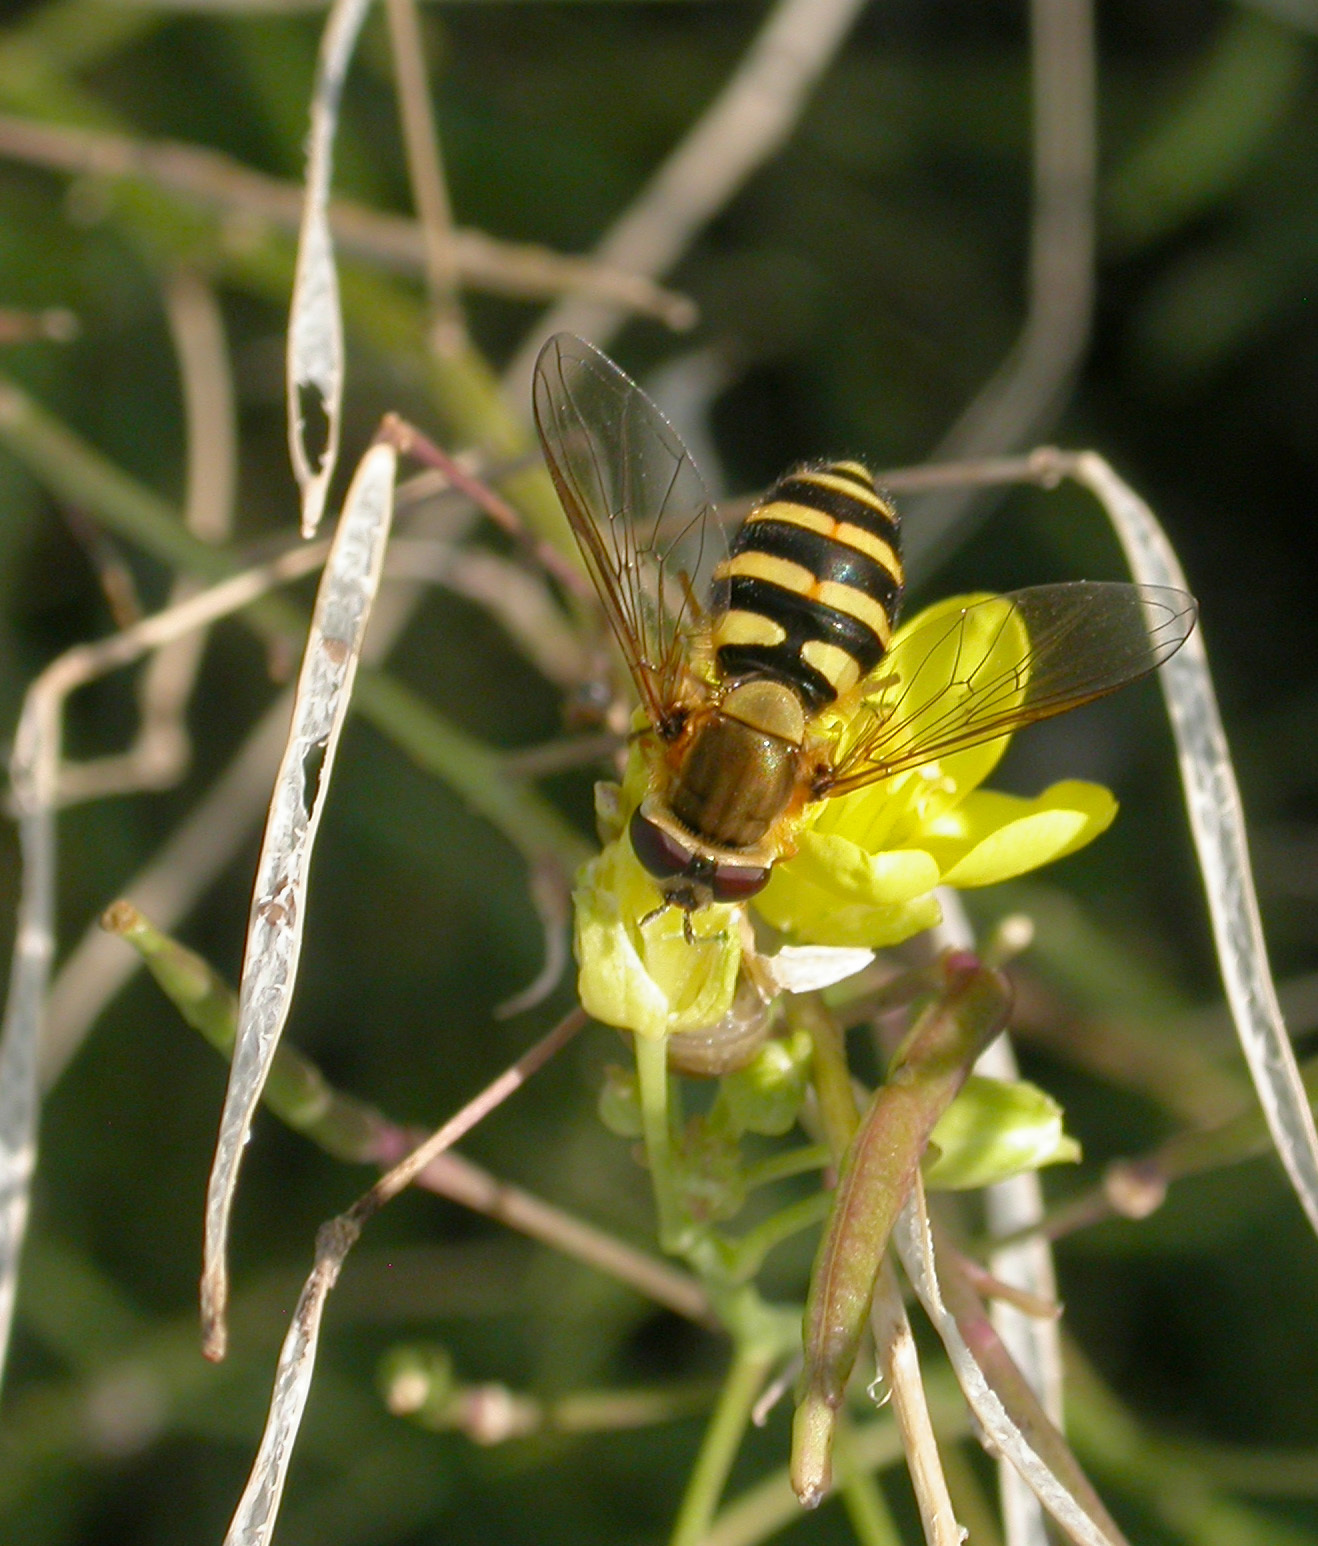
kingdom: Animalia
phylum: Arthropoda
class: Insecta
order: Diptera
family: Syrphidae
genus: Syrphus
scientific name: Syrphus ribesii
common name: Common flower fly
